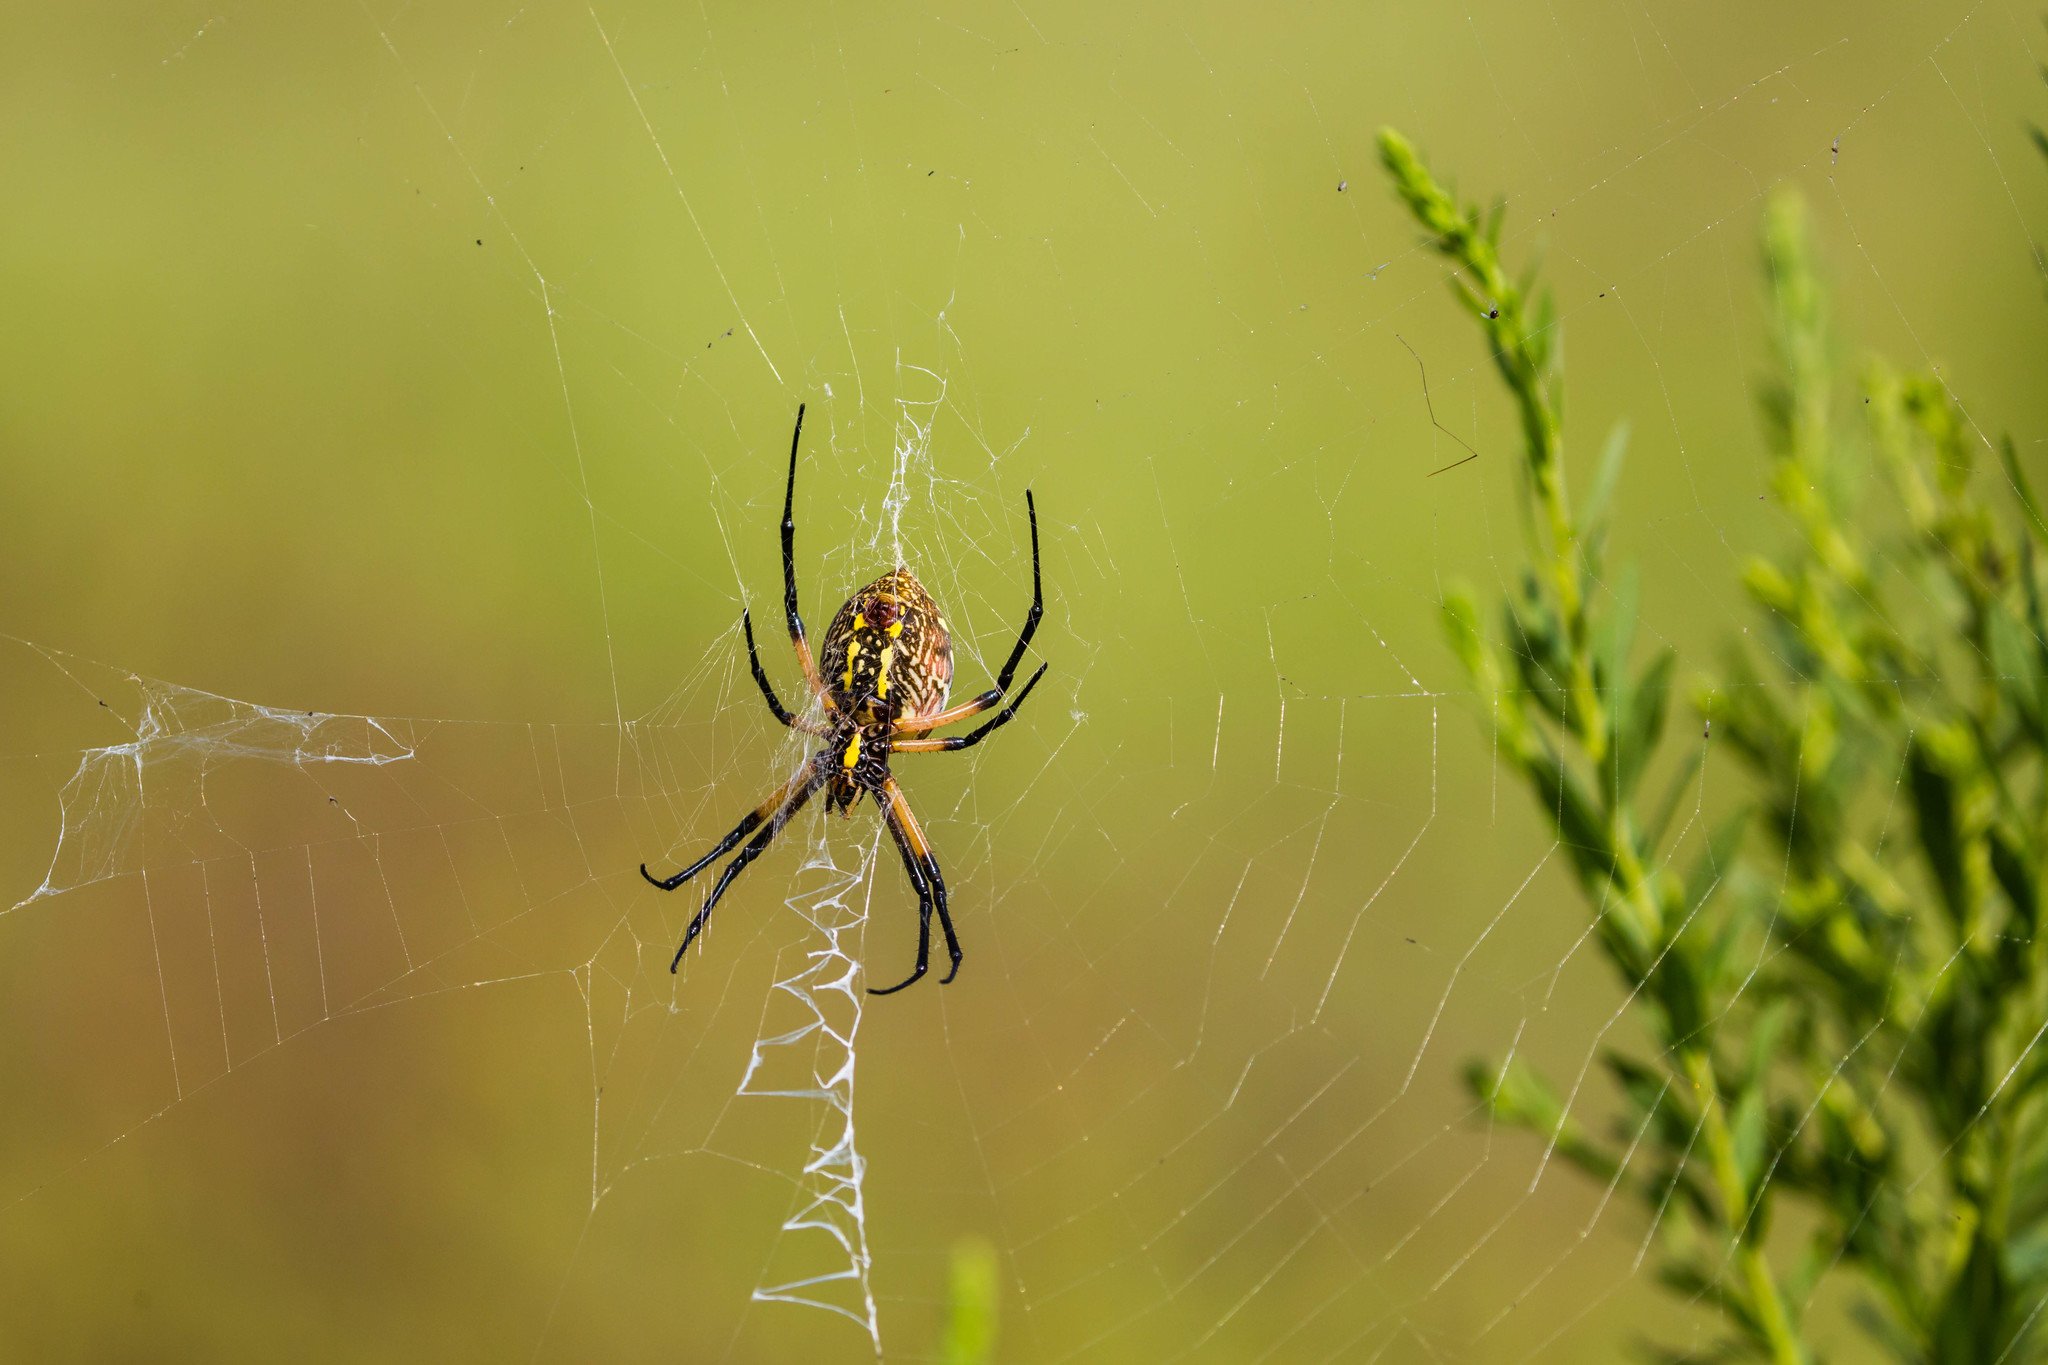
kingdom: Animalia
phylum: Arthropoda
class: Arachnida
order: Araneae
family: Araneidae
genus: Argiope
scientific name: Argiope aurantia
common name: Orb weavers
